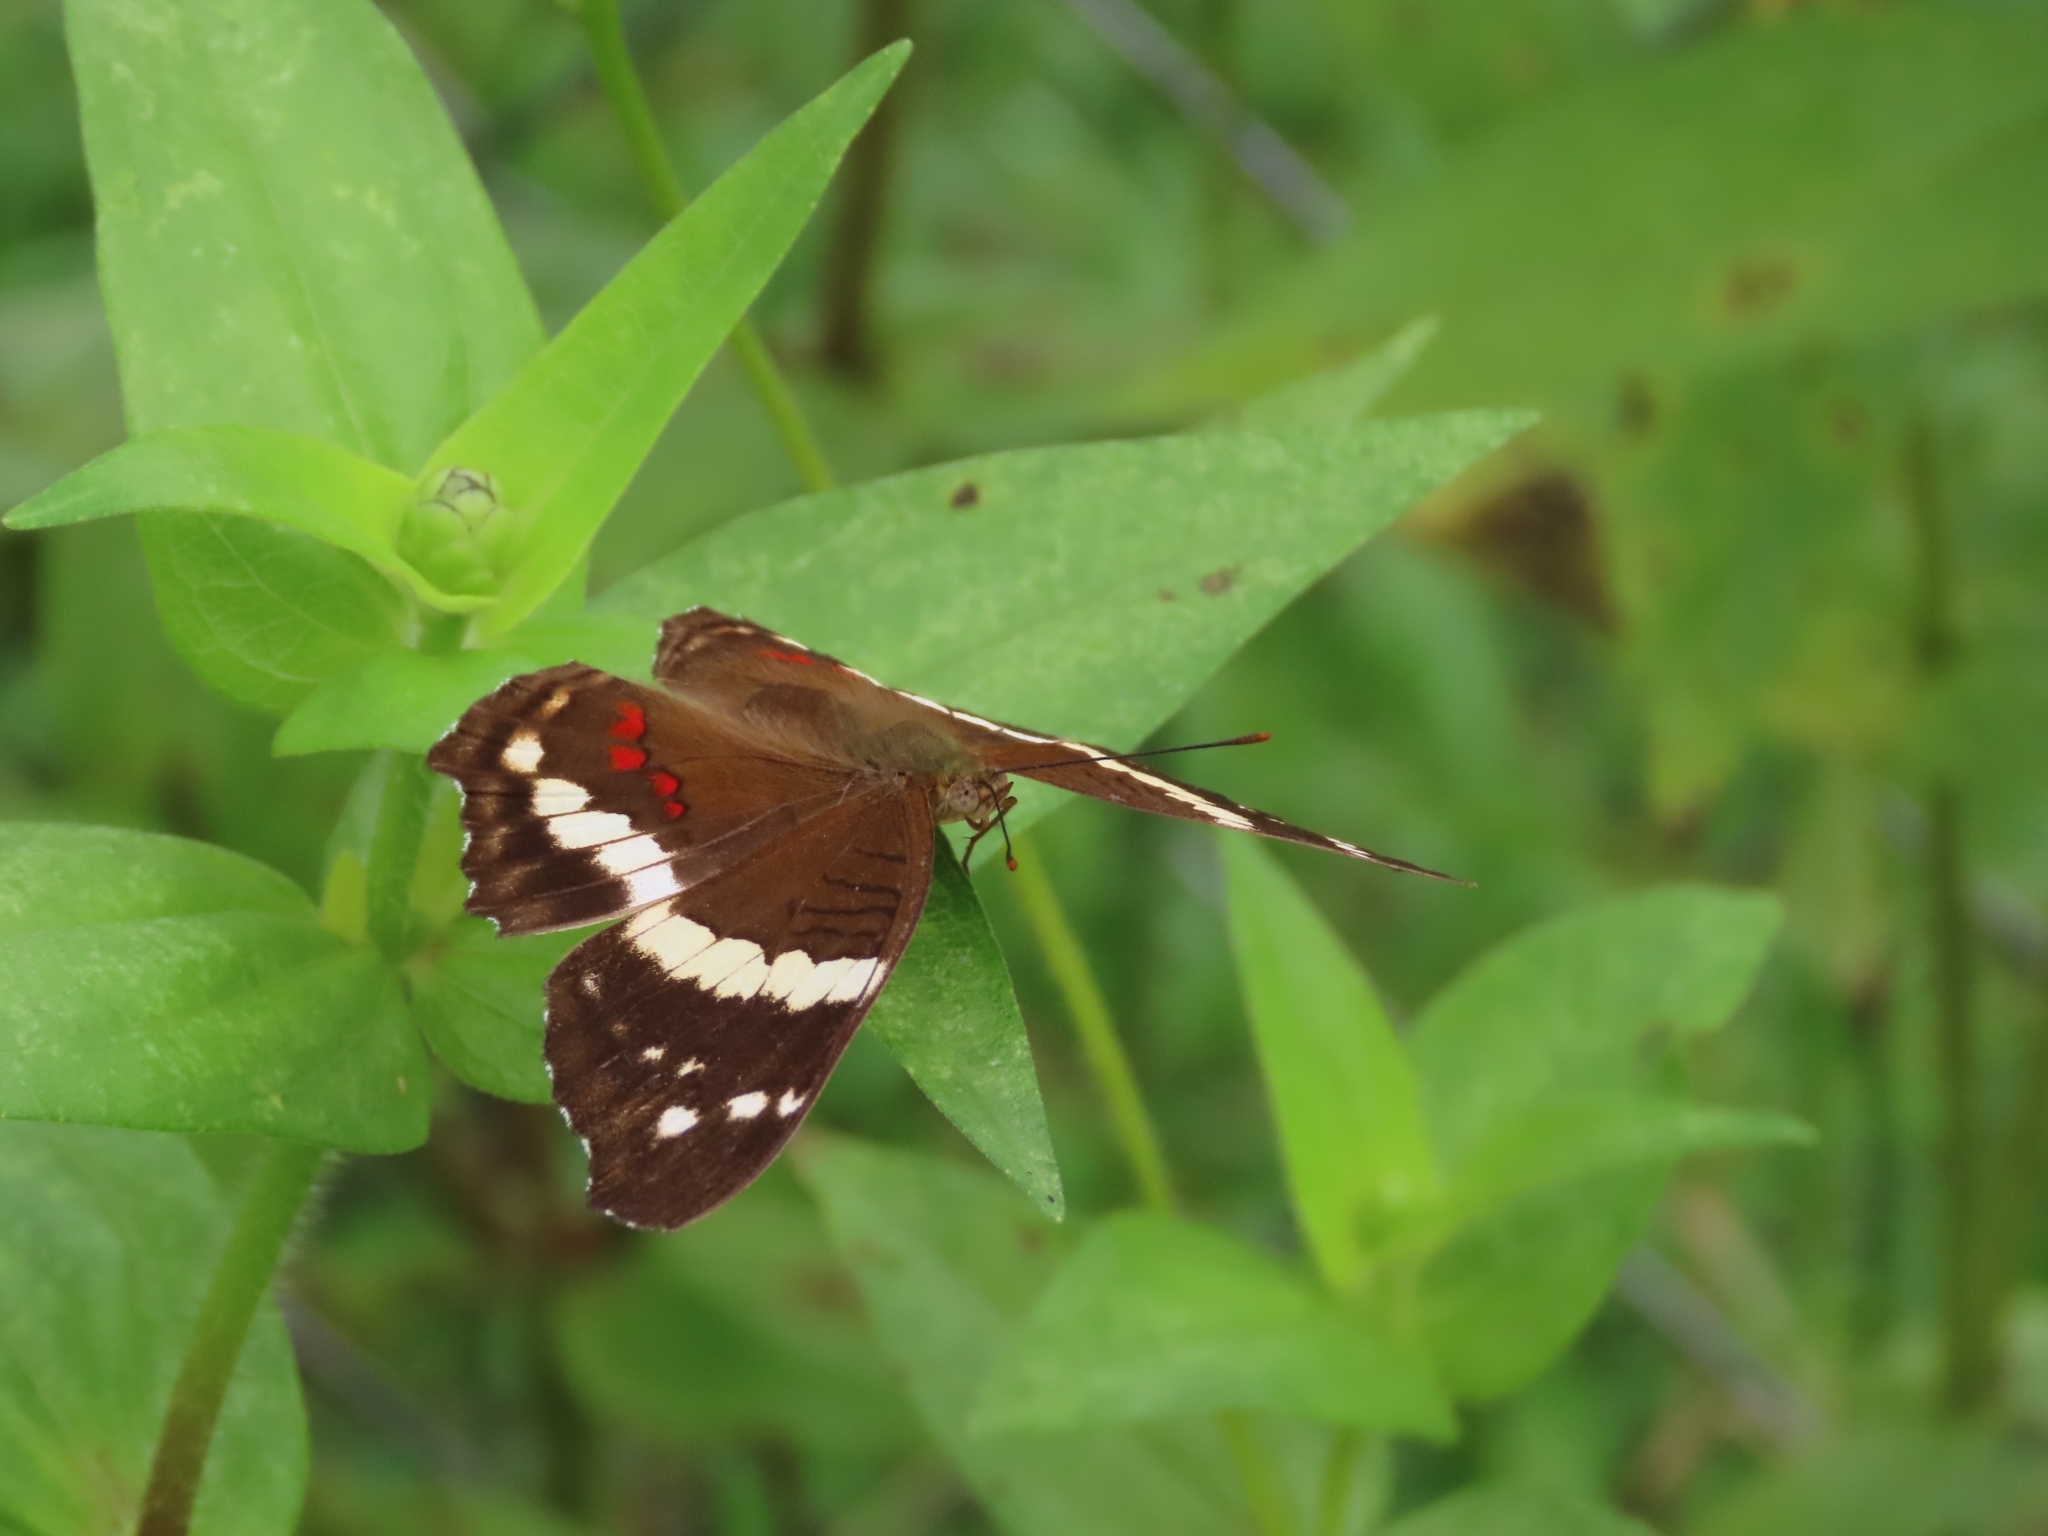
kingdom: Animalia
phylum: Arthropoda
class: Insecta
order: Lepidoptera
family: Nymphalidae
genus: Anartia
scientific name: Anartia fatima
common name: Banded peacock
